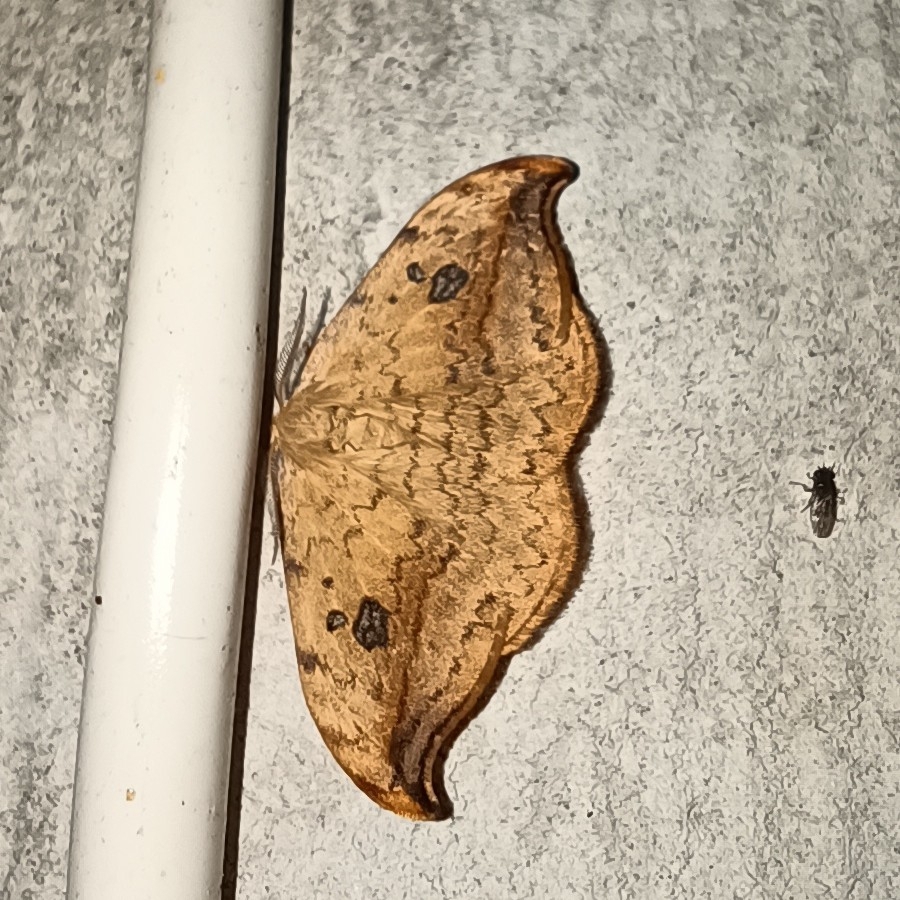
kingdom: Animalia
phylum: Arthropoda
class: Insecta
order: Lepidoptera
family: Drepanidae
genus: Drepana
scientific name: Drepana falcataria
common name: Pebble hook-tip
